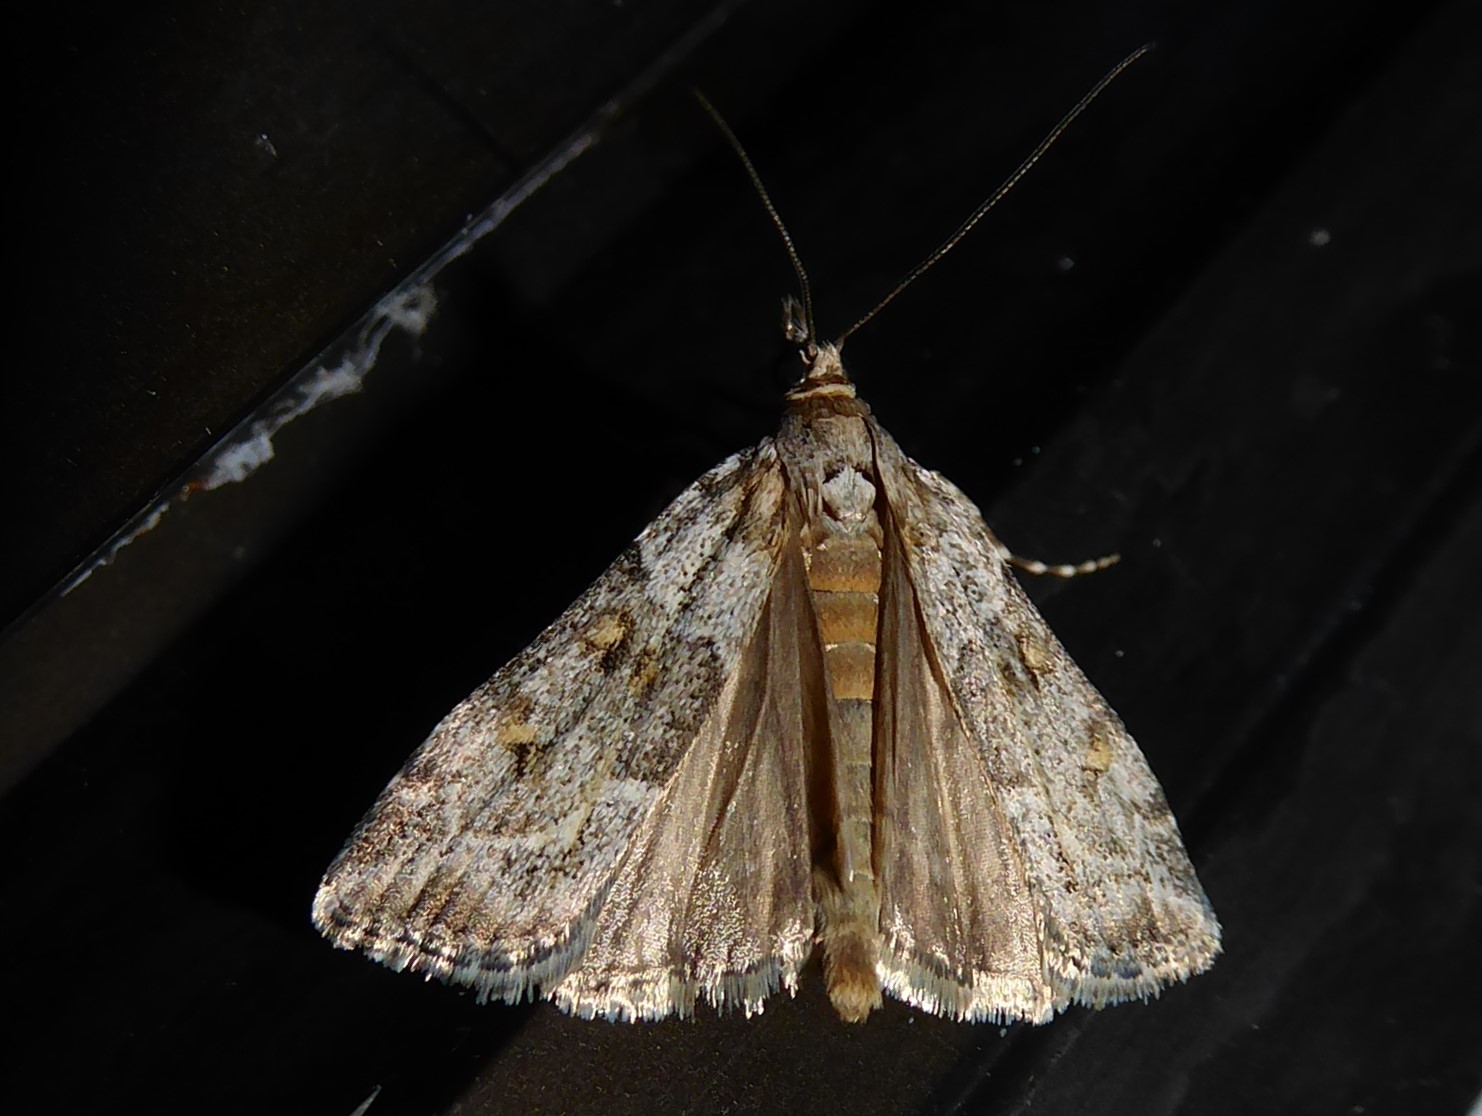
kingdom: Animalia
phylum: Arthropoda
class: Insecta
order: Lepidoptera
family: Crambidae
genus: Eudonia
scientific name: Eudonia diphtheralis
